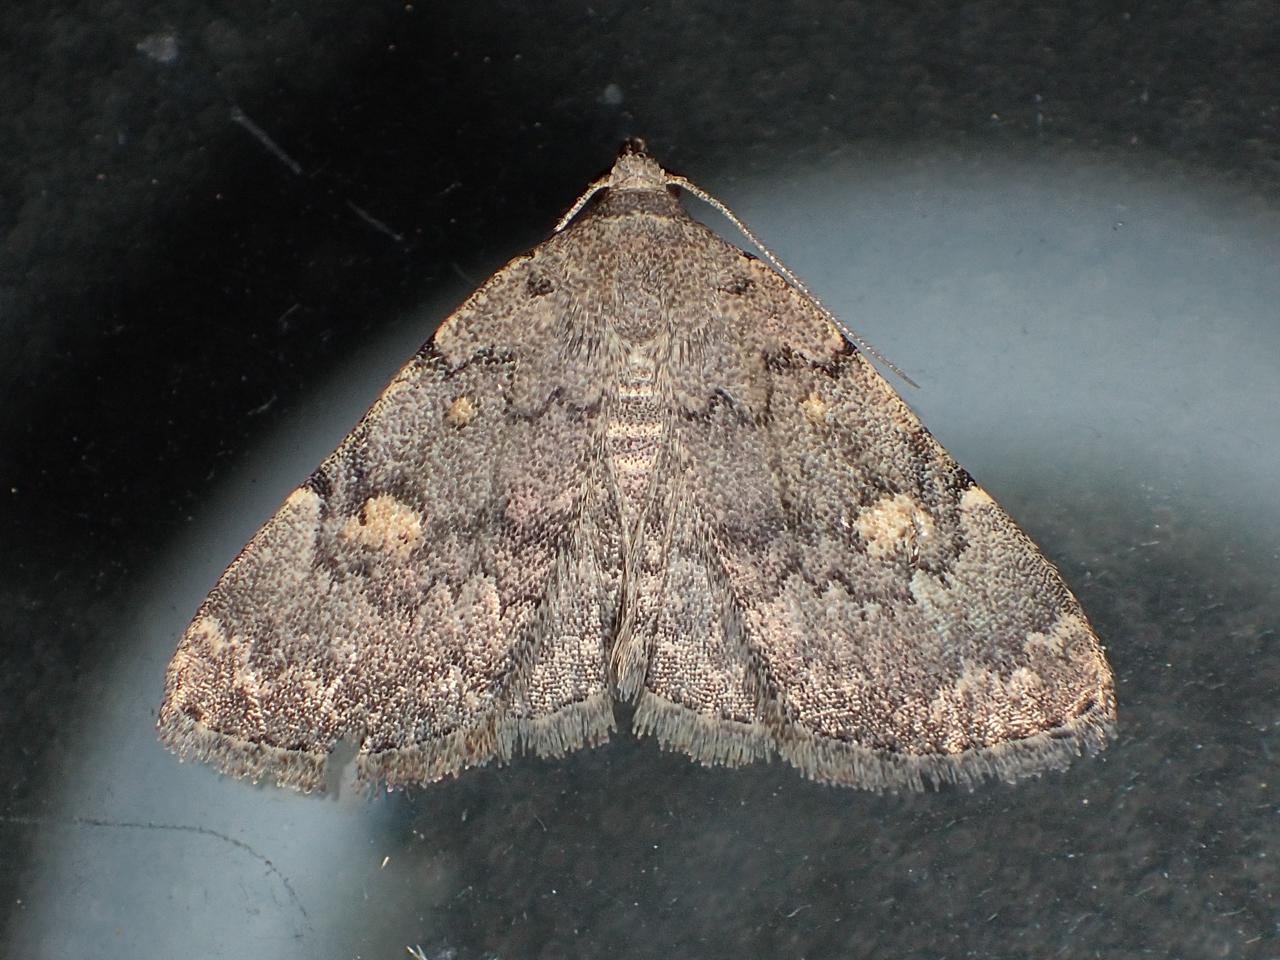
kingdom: Animalia
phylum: Arthropoda
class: Insecta
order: Lepidoptera
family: Erebidae
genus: Idia
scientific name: Idia aemula
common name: Common idia moth
